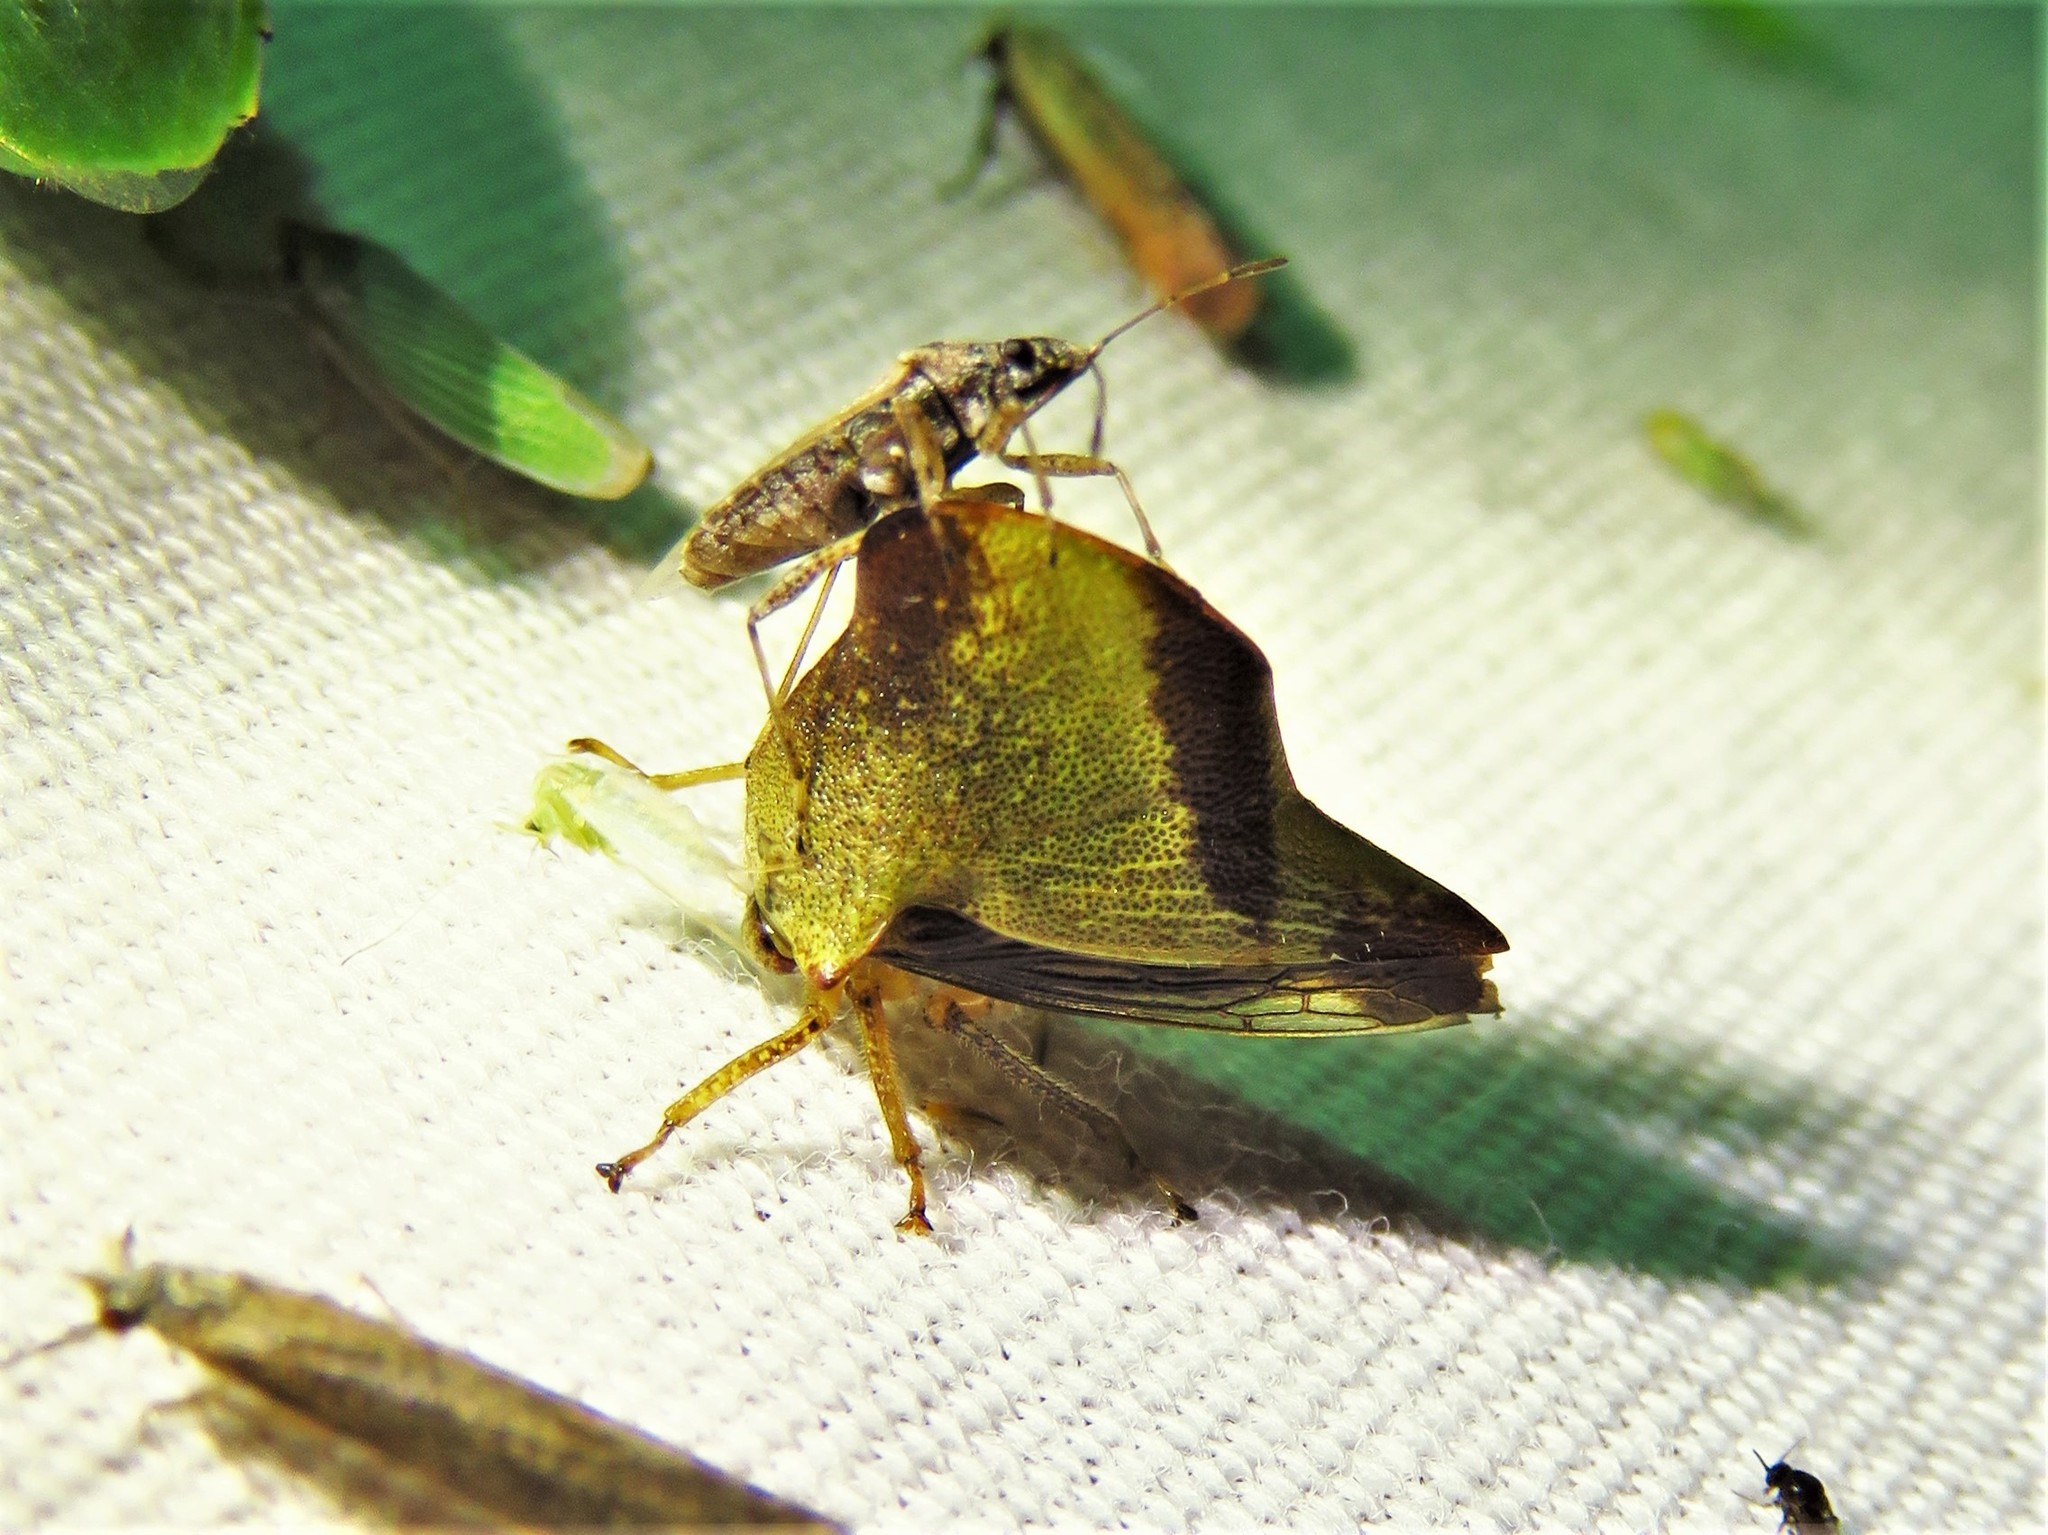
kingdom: Animalia
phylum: Arthropoda
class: Insecta
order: Hemiptera
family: Membracidae
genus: Helonica
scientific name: Helonica excelsa
